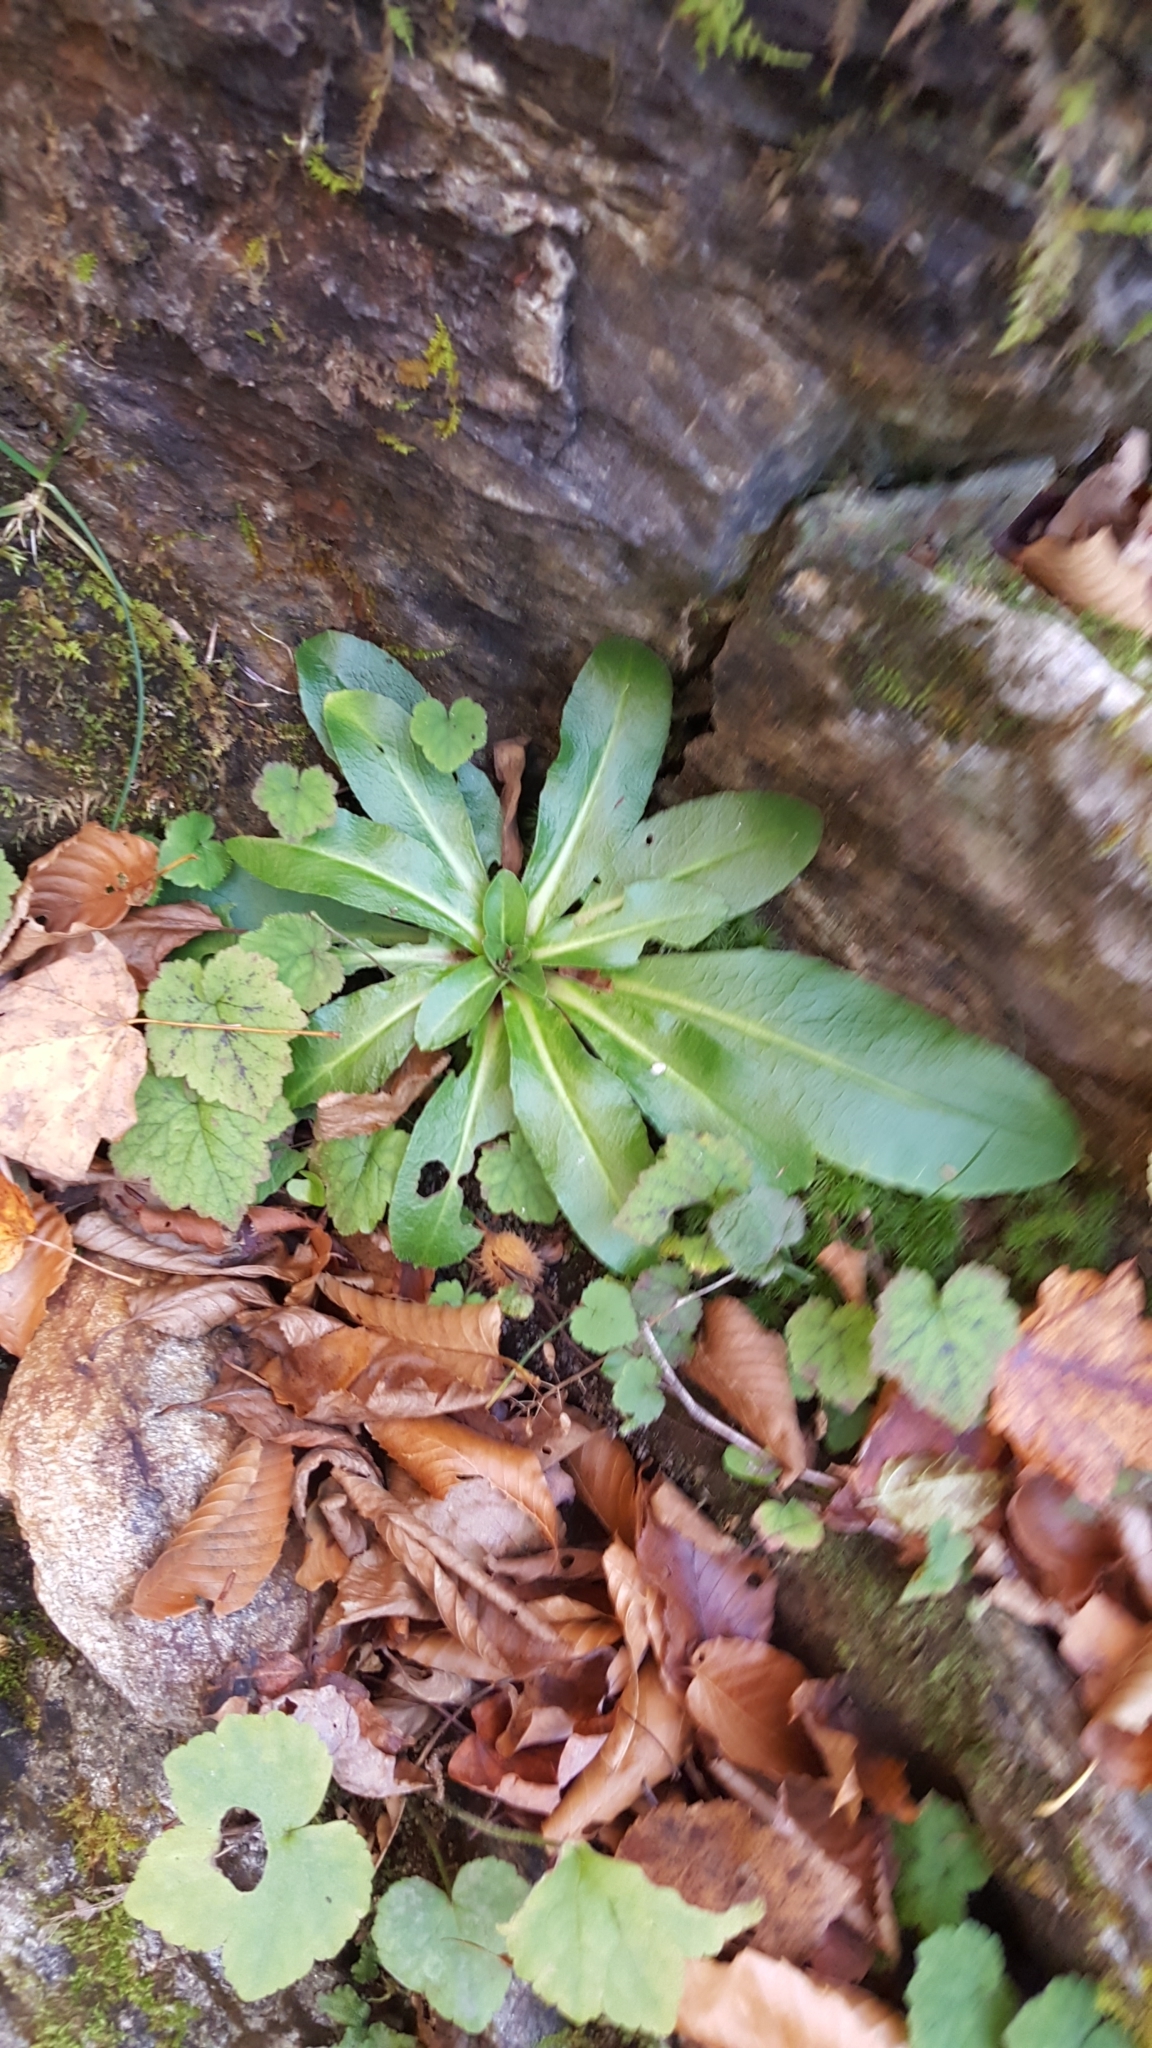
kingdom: Plantae
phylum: Tracheophyta
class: Magnoliopsida
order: Saxifragales
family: Saxifragaceae
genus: Micranthes
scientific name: Micranthes pensylvanica
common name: Marsh saxifrage
